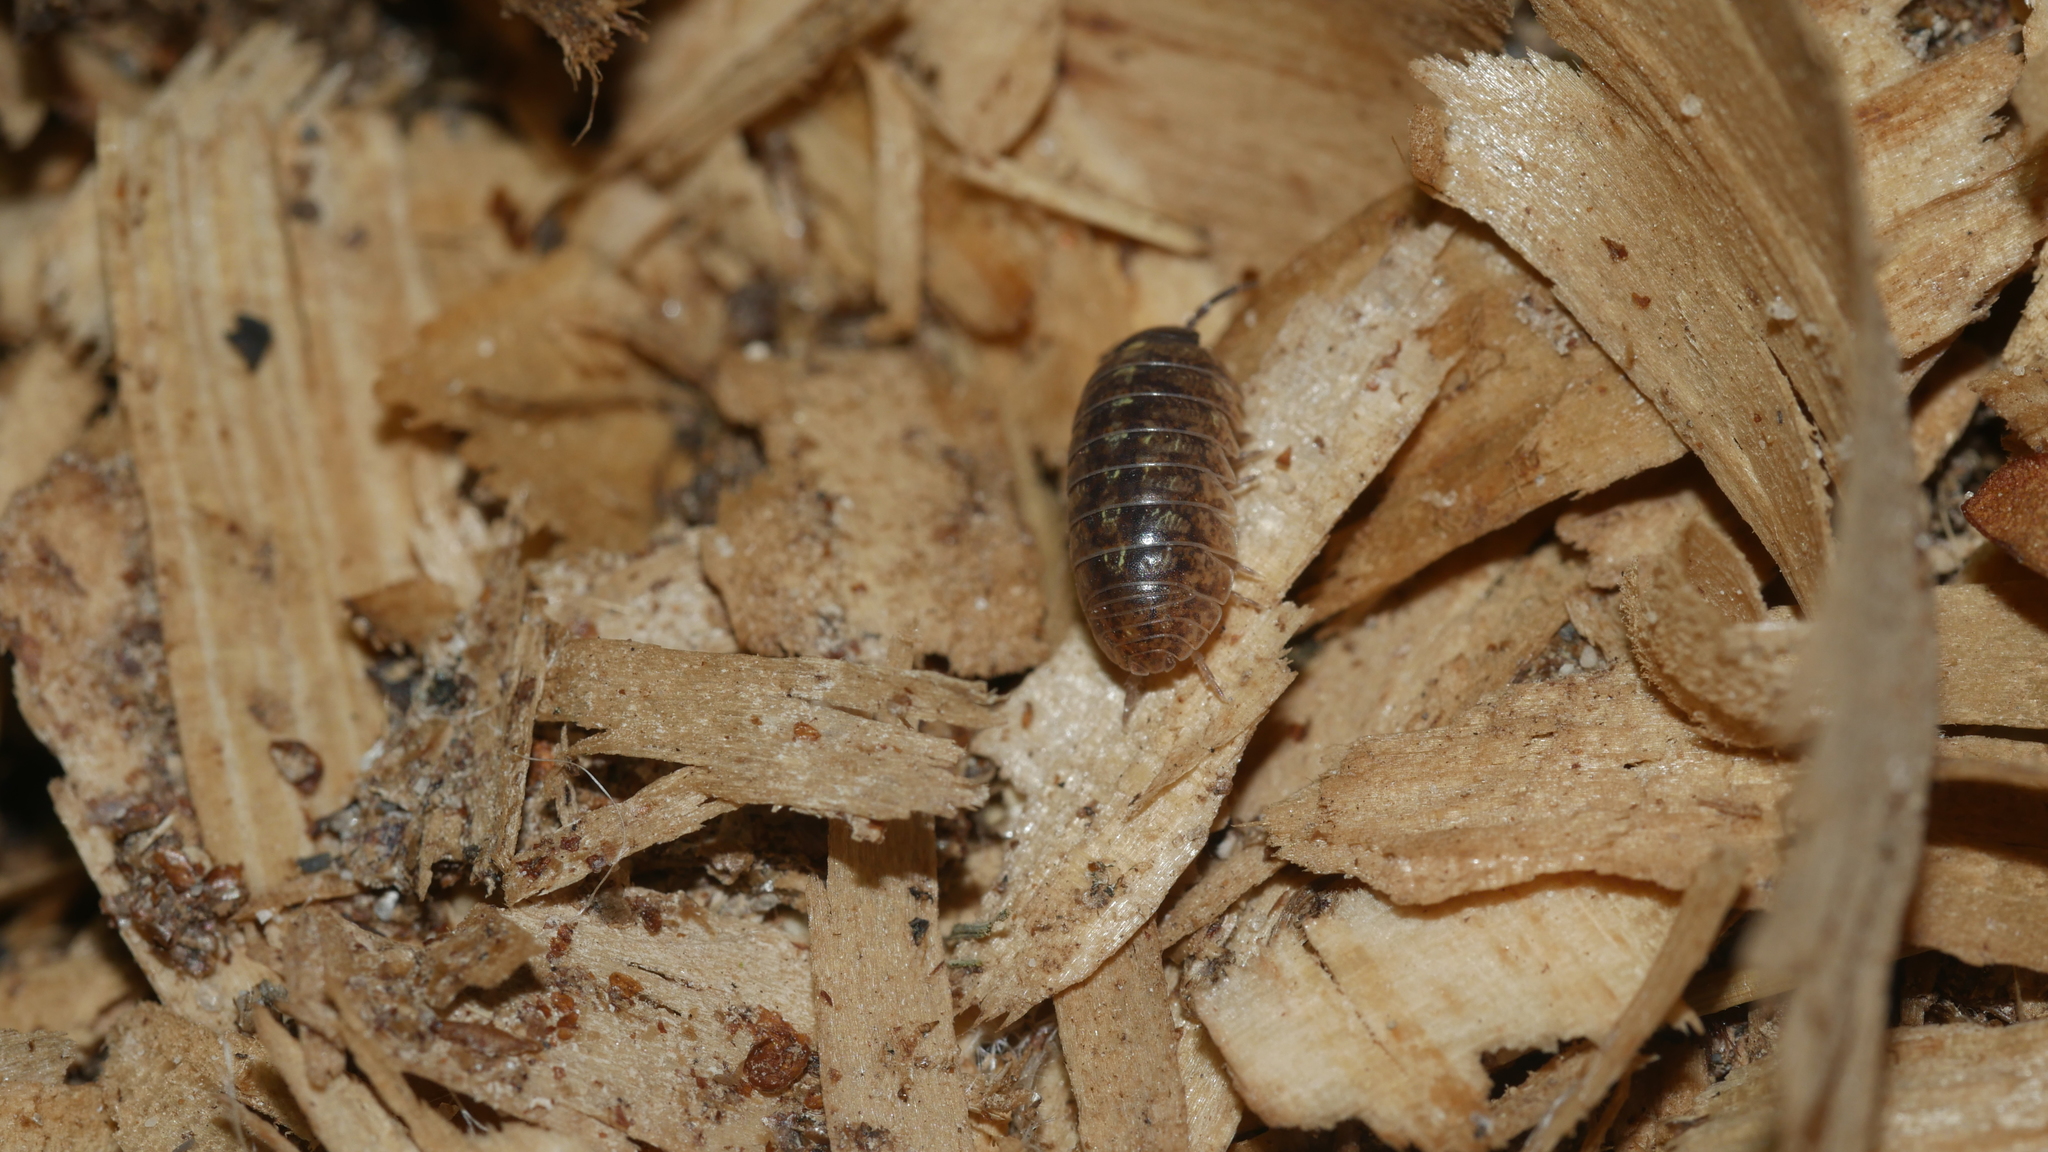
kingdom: Animalia
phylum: Arthropoda
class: Malacostraca
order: Isopoda
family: Armadillidiidae
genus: Armadillidium
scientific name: Armadillidium vulgare
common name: Common pill woodlouse
